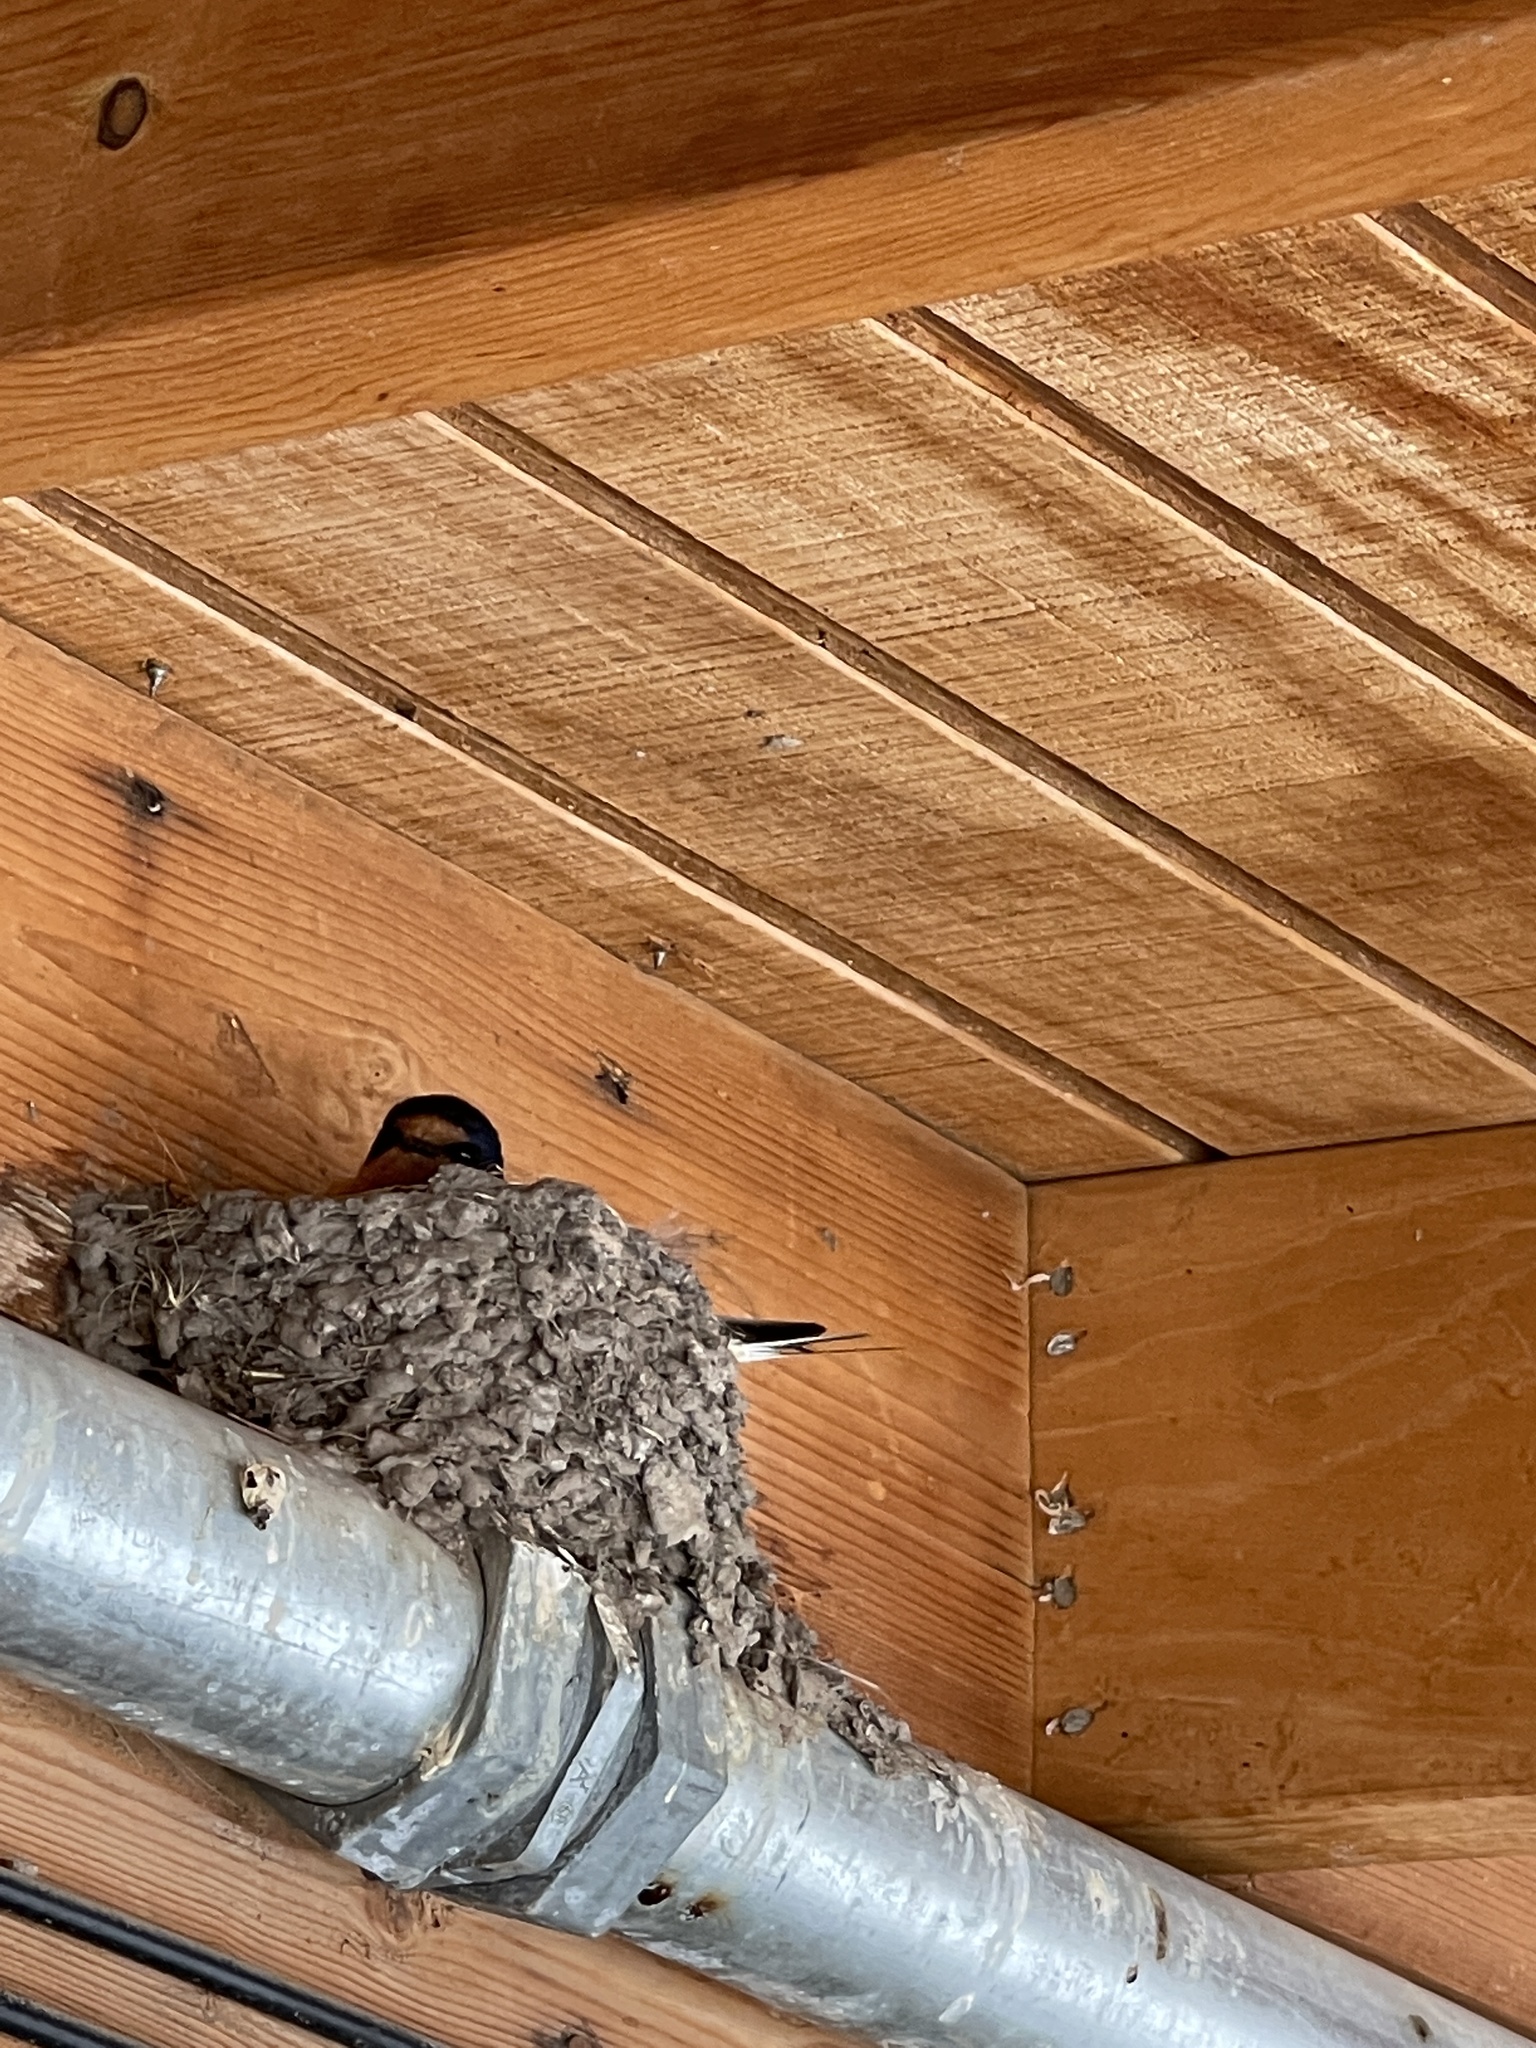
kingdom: Animalia
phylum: Chordata
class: Aves
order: Passeriformes
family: Hirundinidae
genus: Hirundo
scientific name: Hirundo rustica
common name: Barn swallow
